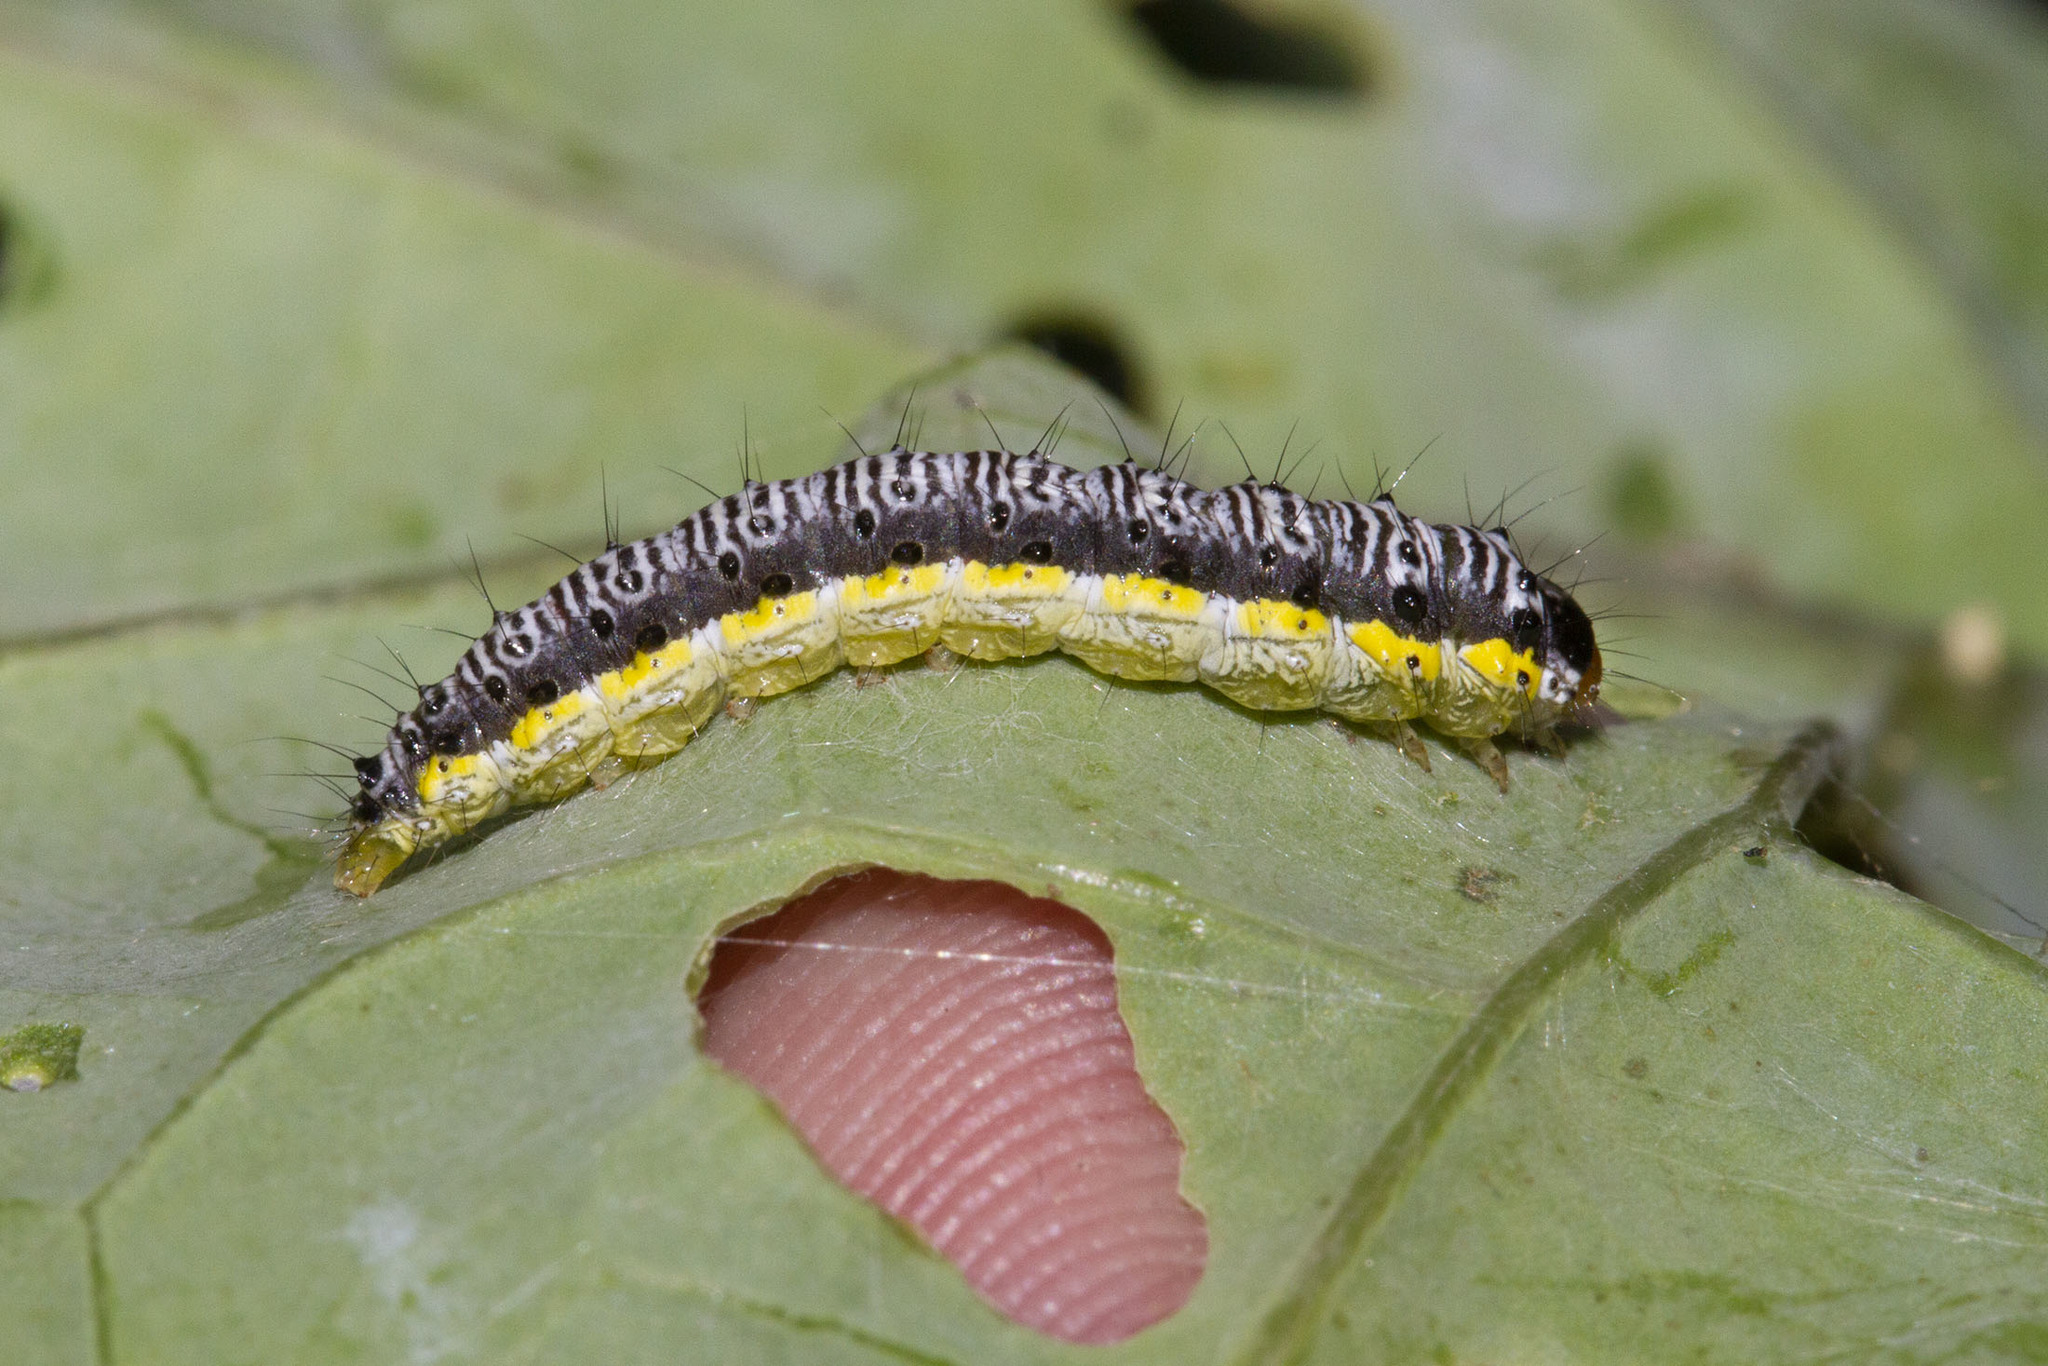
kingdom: Animalia
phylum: Arthropoda
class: Insecta
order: Lepidoptera
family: Crambidae
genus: Evergestis
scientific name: Evergestis rimosalis
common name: Cross-striped cabbageworm moth
